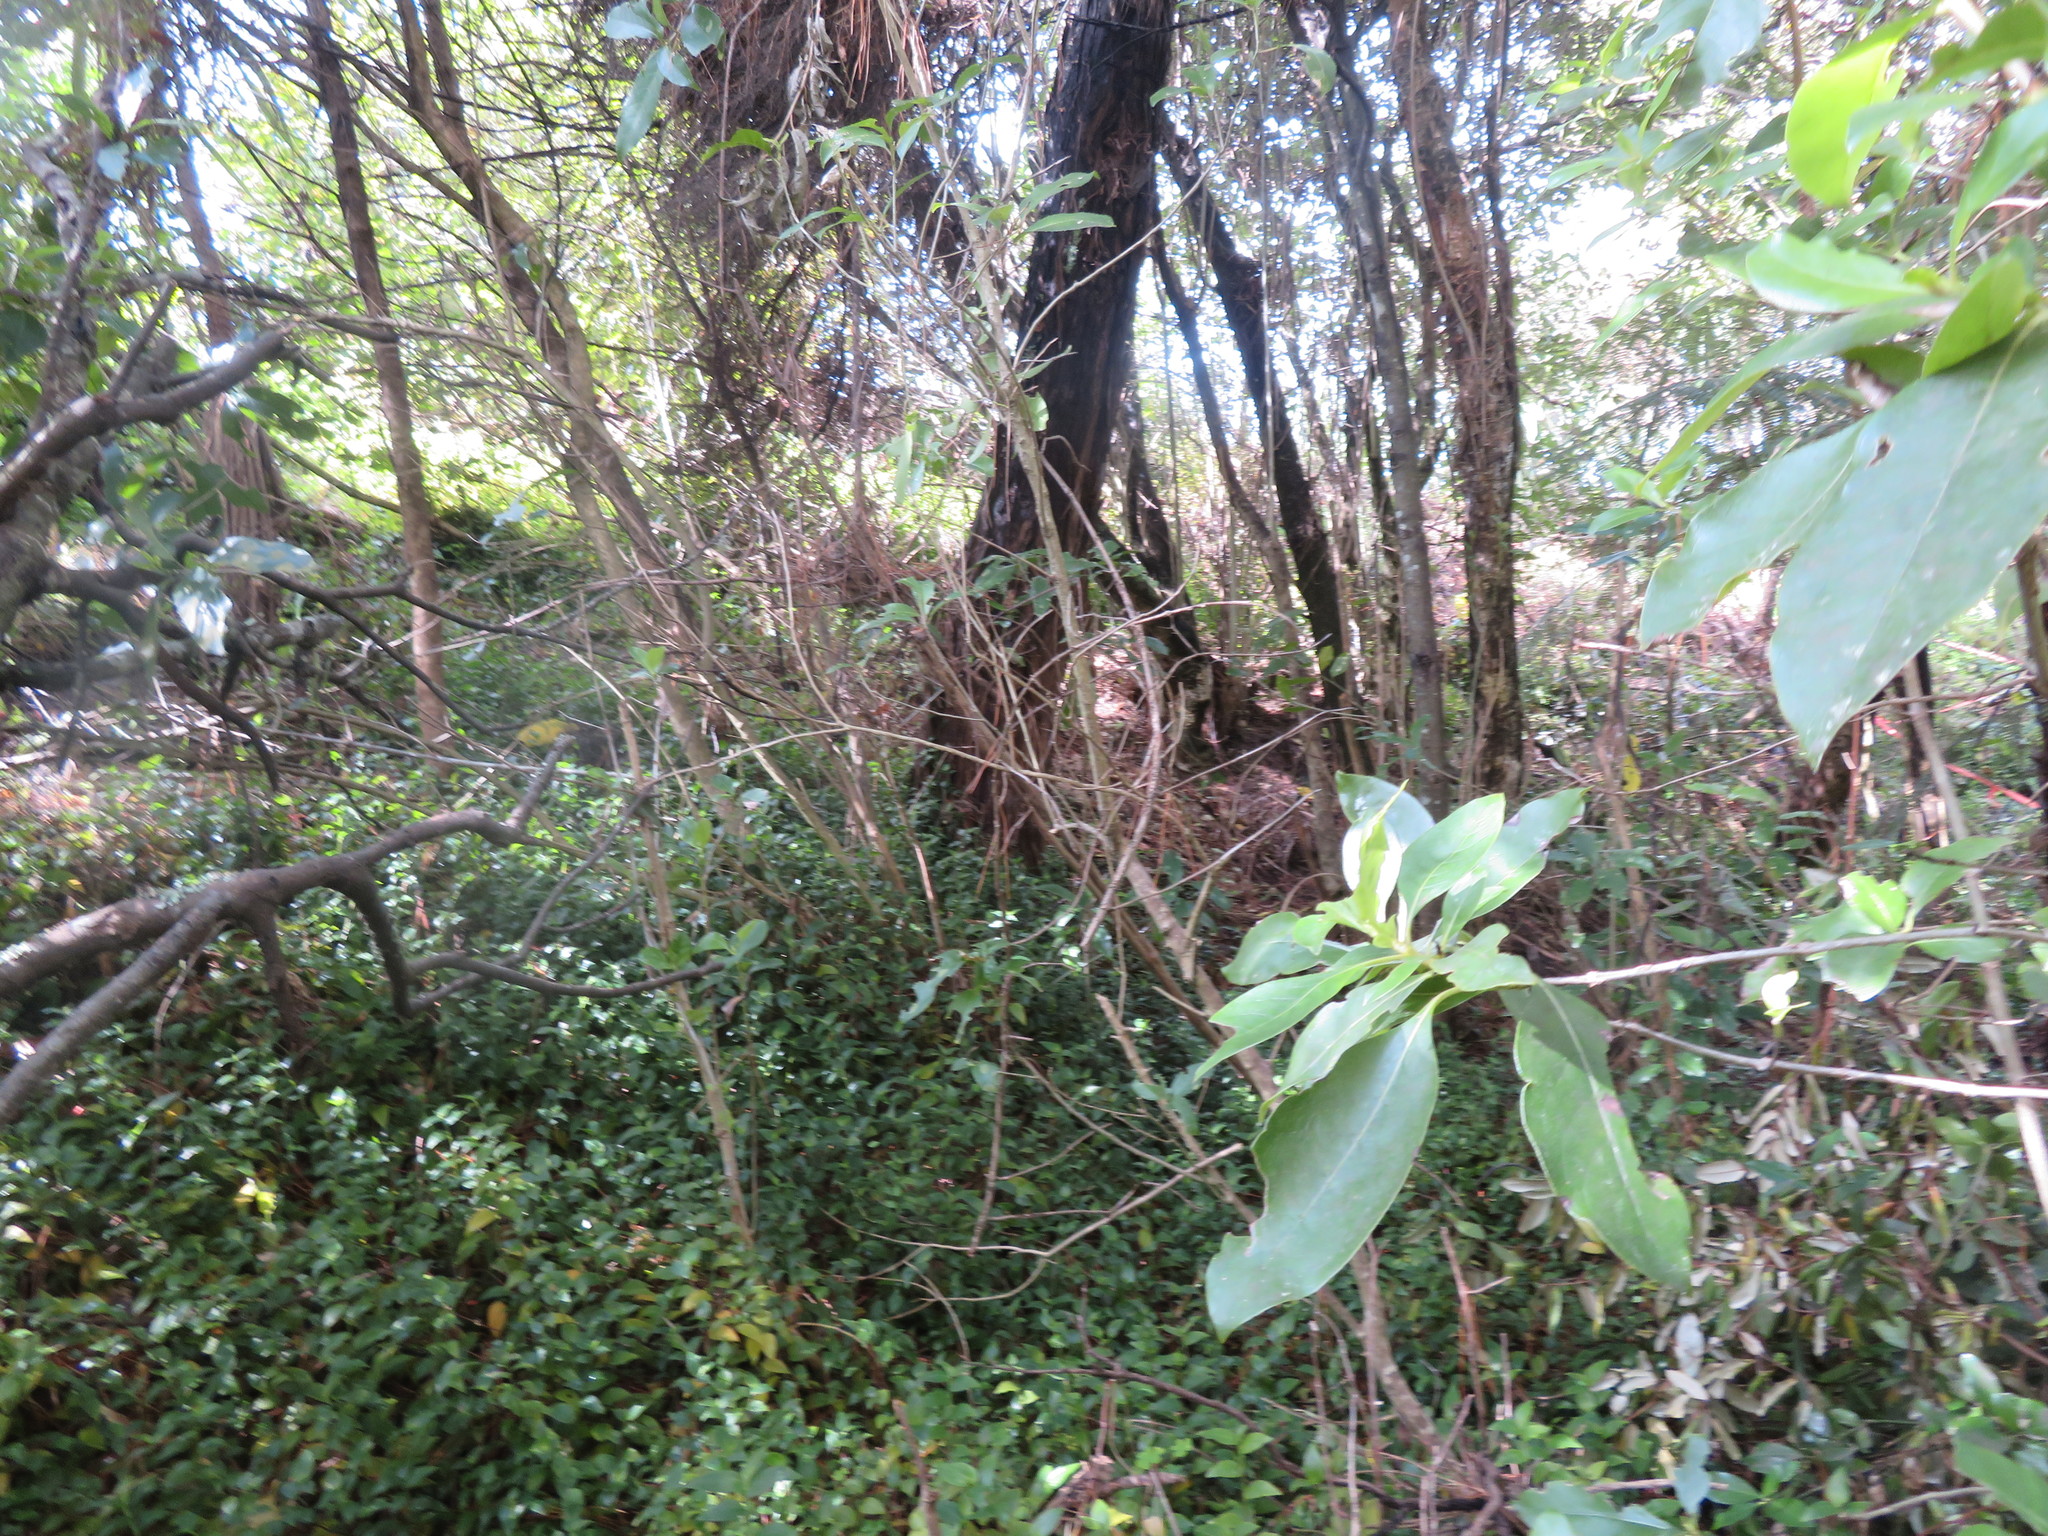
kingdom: Plantae
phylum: Tracheophyta
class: Liliopsida
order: Commelinales
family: Commelinaceae
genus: Tradescantia
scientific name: Tradescantia fluminensis
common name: Wandering-jew
